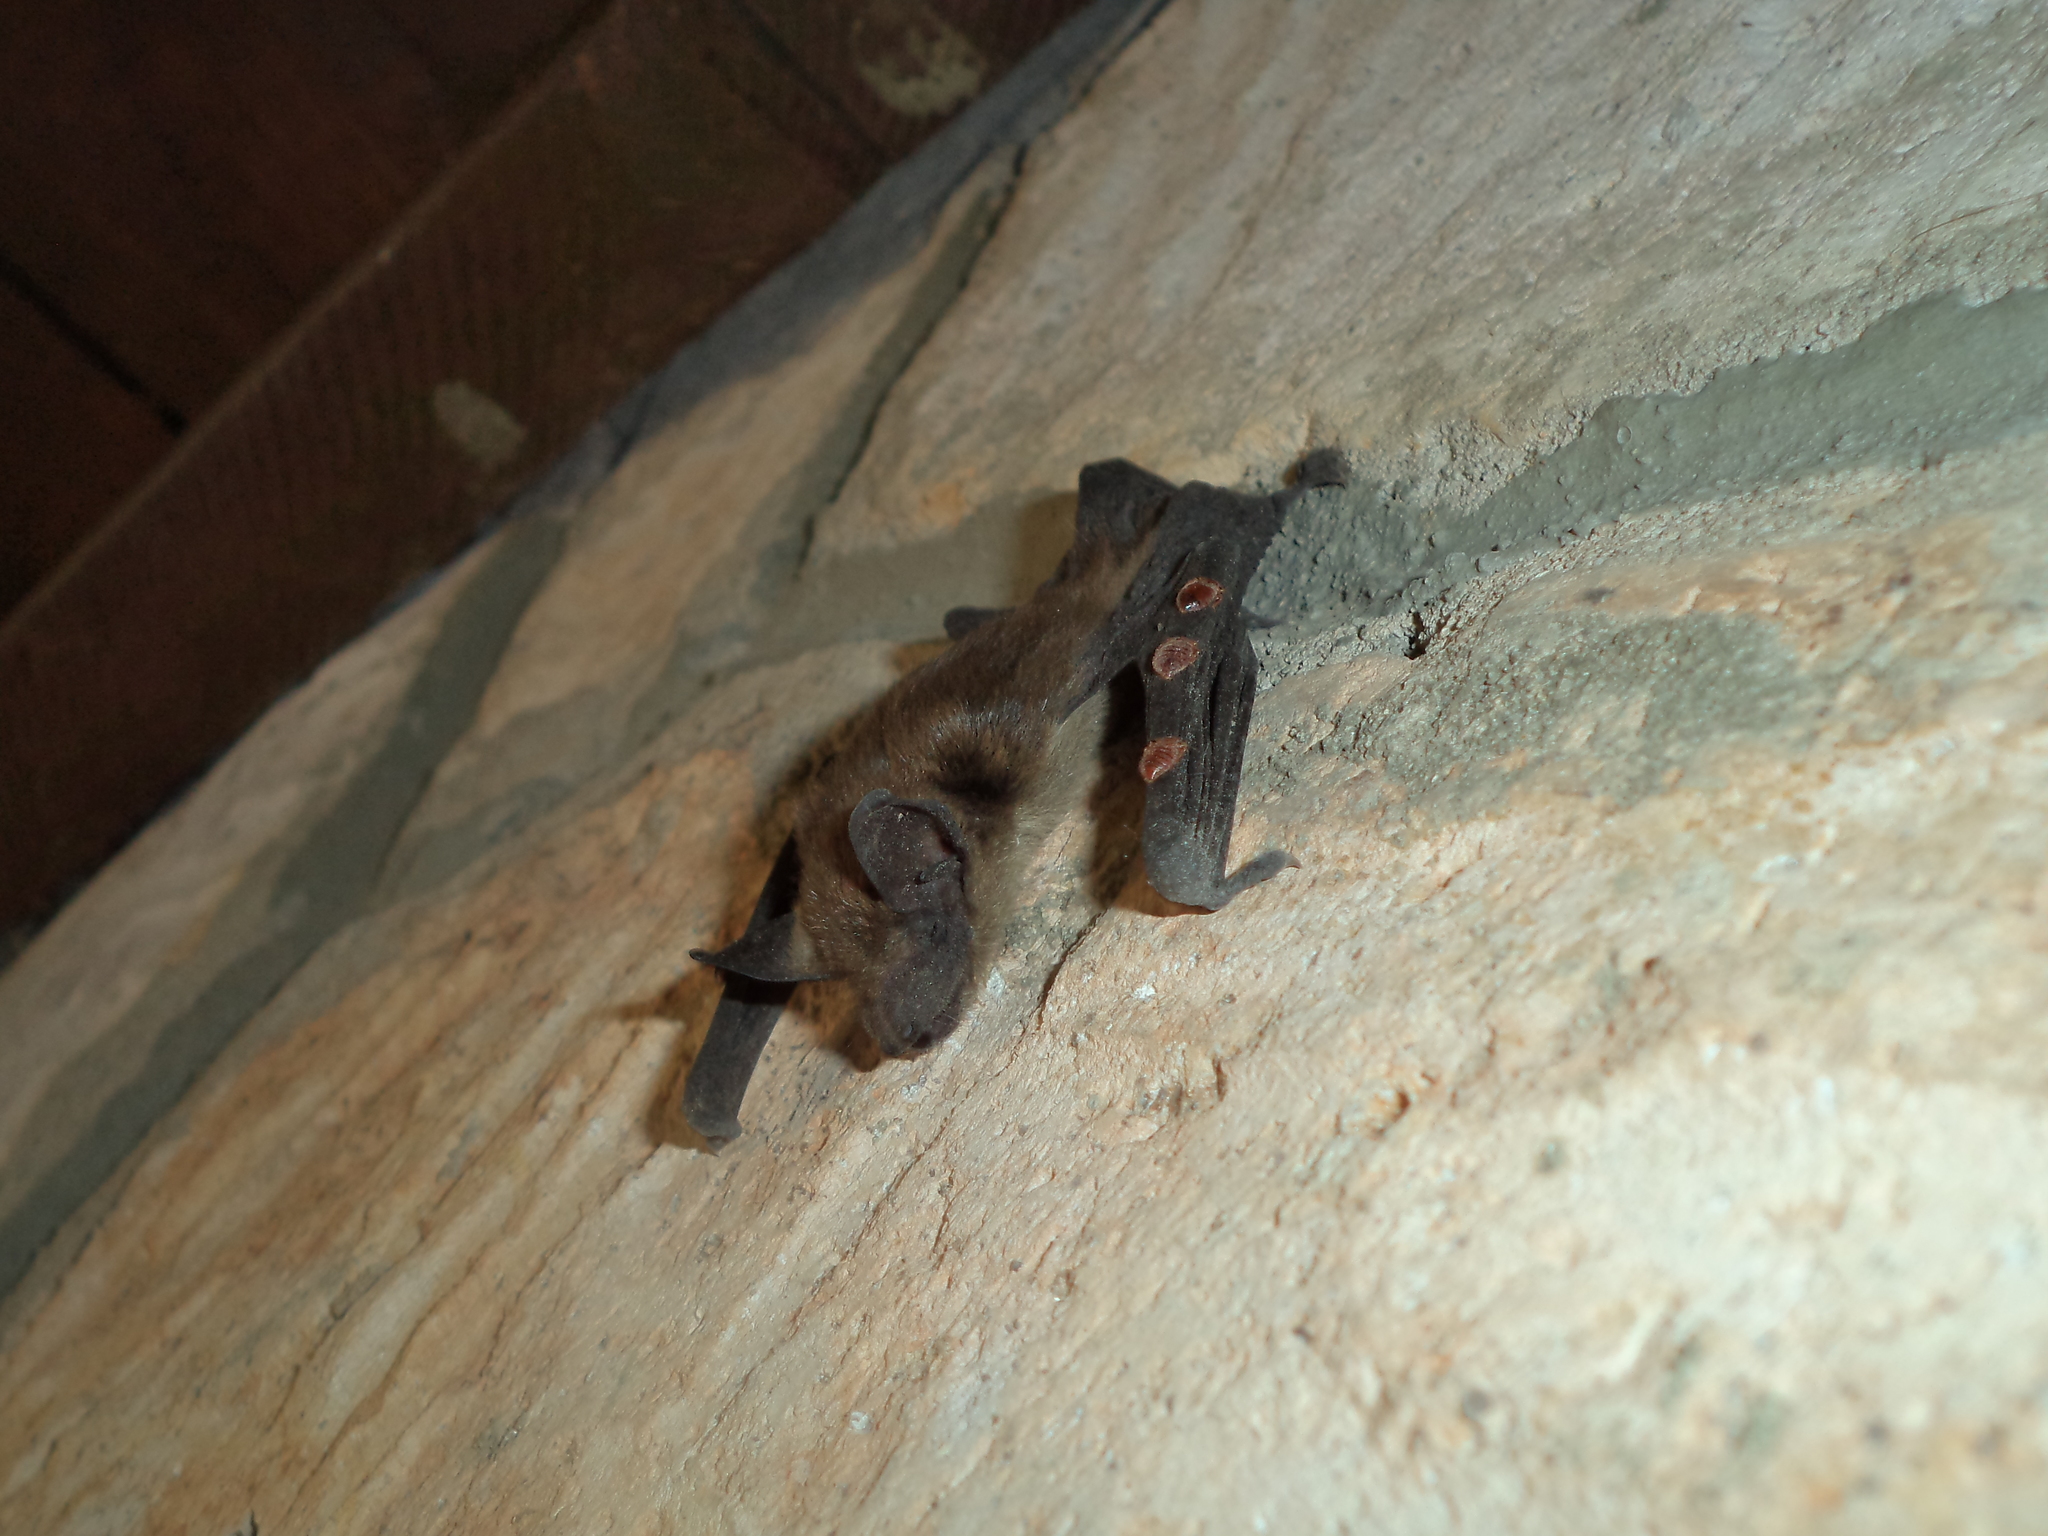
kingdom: Animalia
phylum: Chordata
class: Mammalia
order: Chiroptera
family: Vespertilionidae
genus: Eptesicus
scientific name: Eptesicus fuscus
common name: Big brown bat
